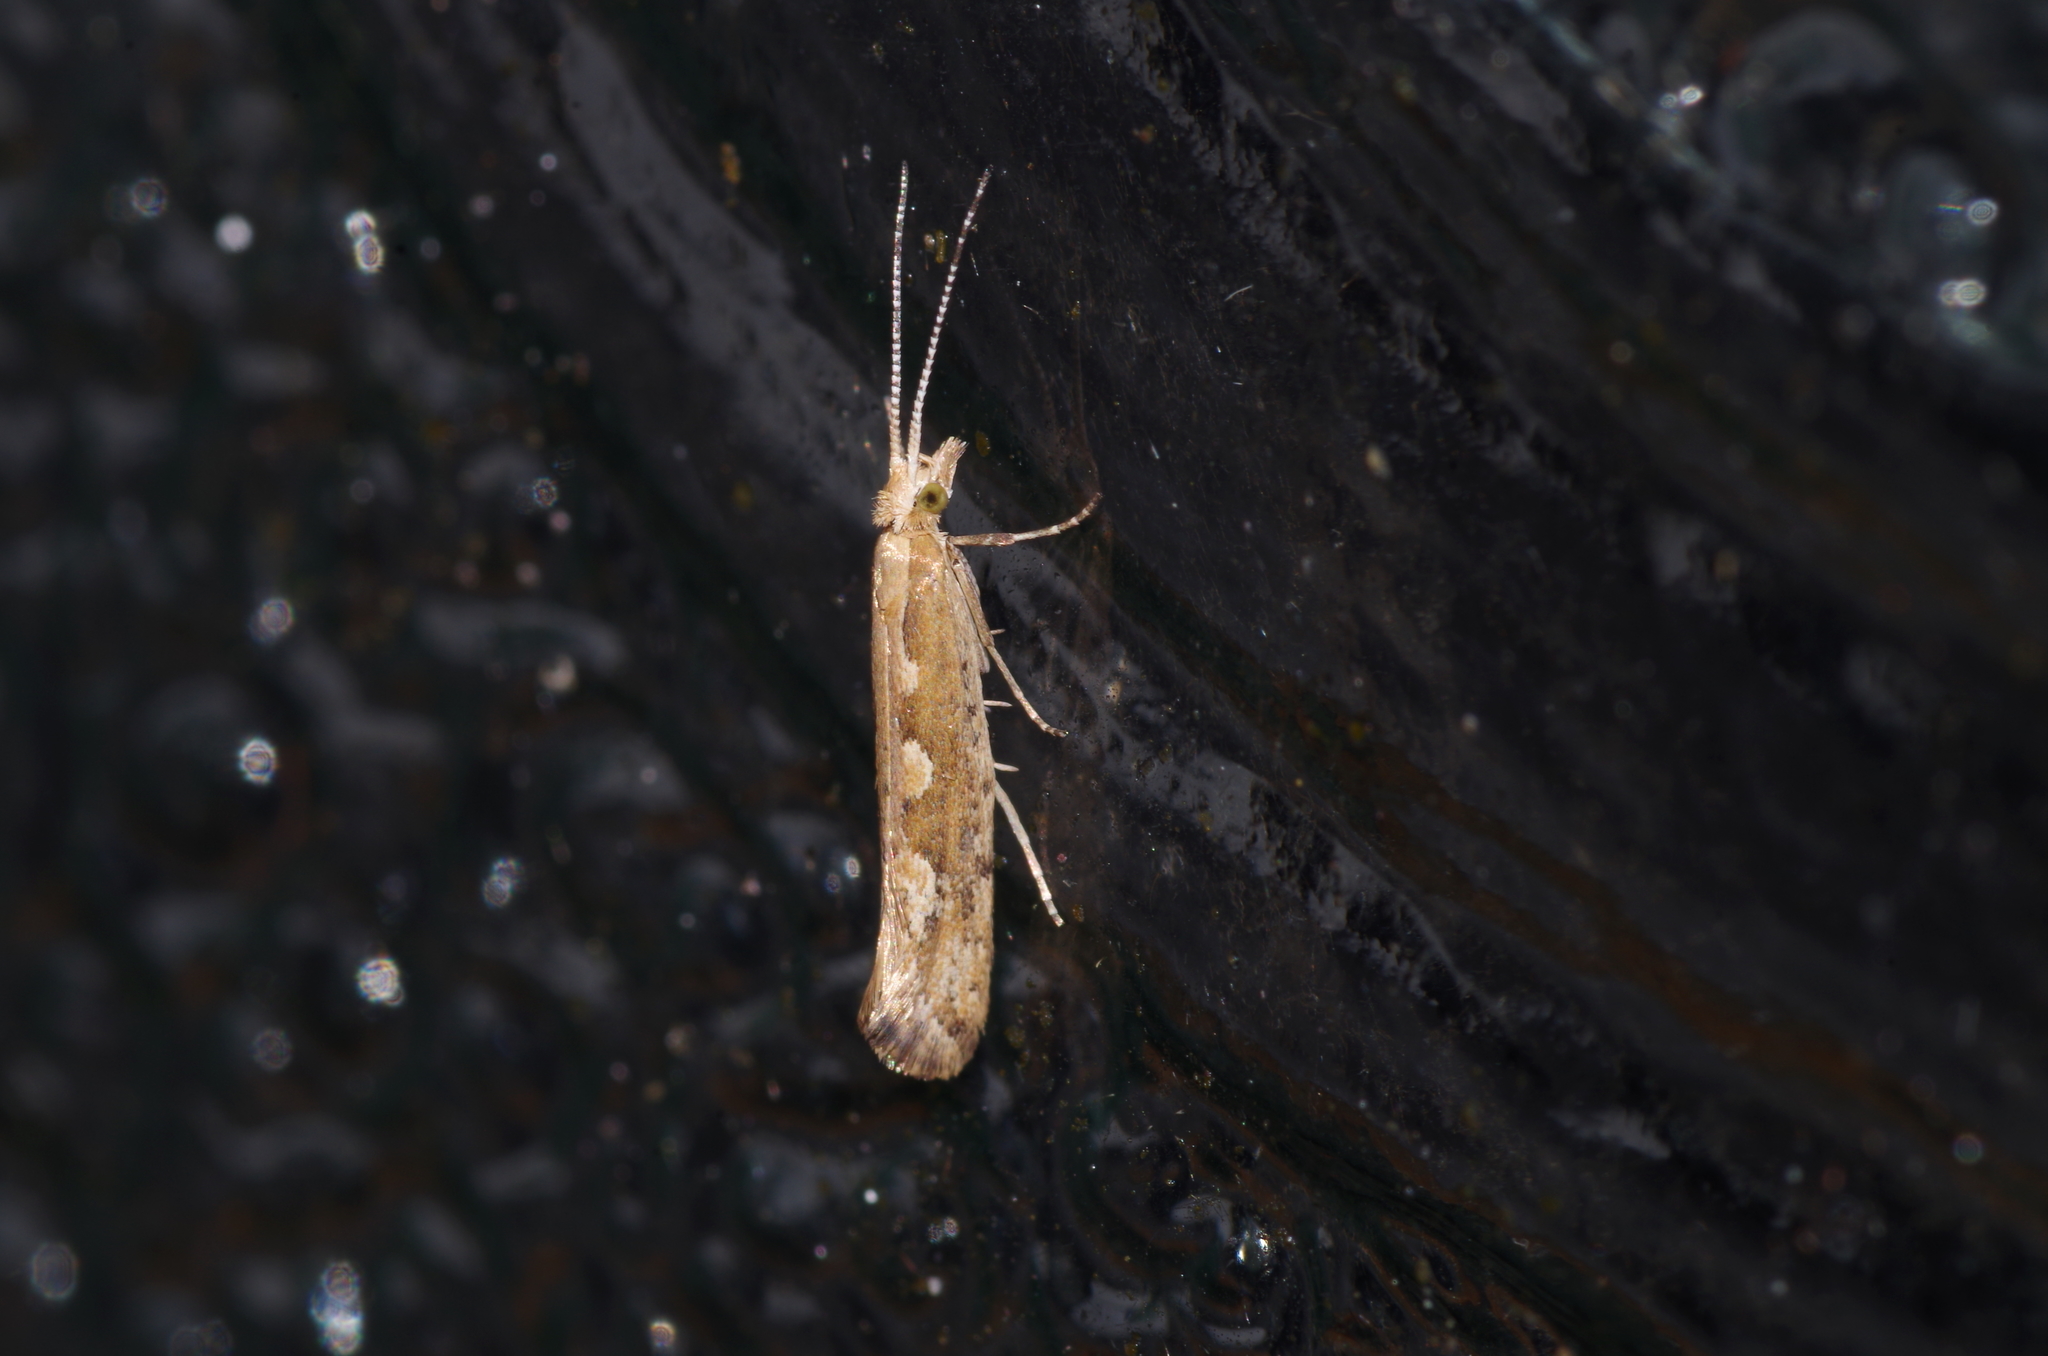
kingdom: Animalia
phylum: Arthropoda
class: Insecta
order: Lepidoptera
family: Plutellidae
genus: Plutella
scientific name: Plutella xylostella
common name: Diamond-back moth
